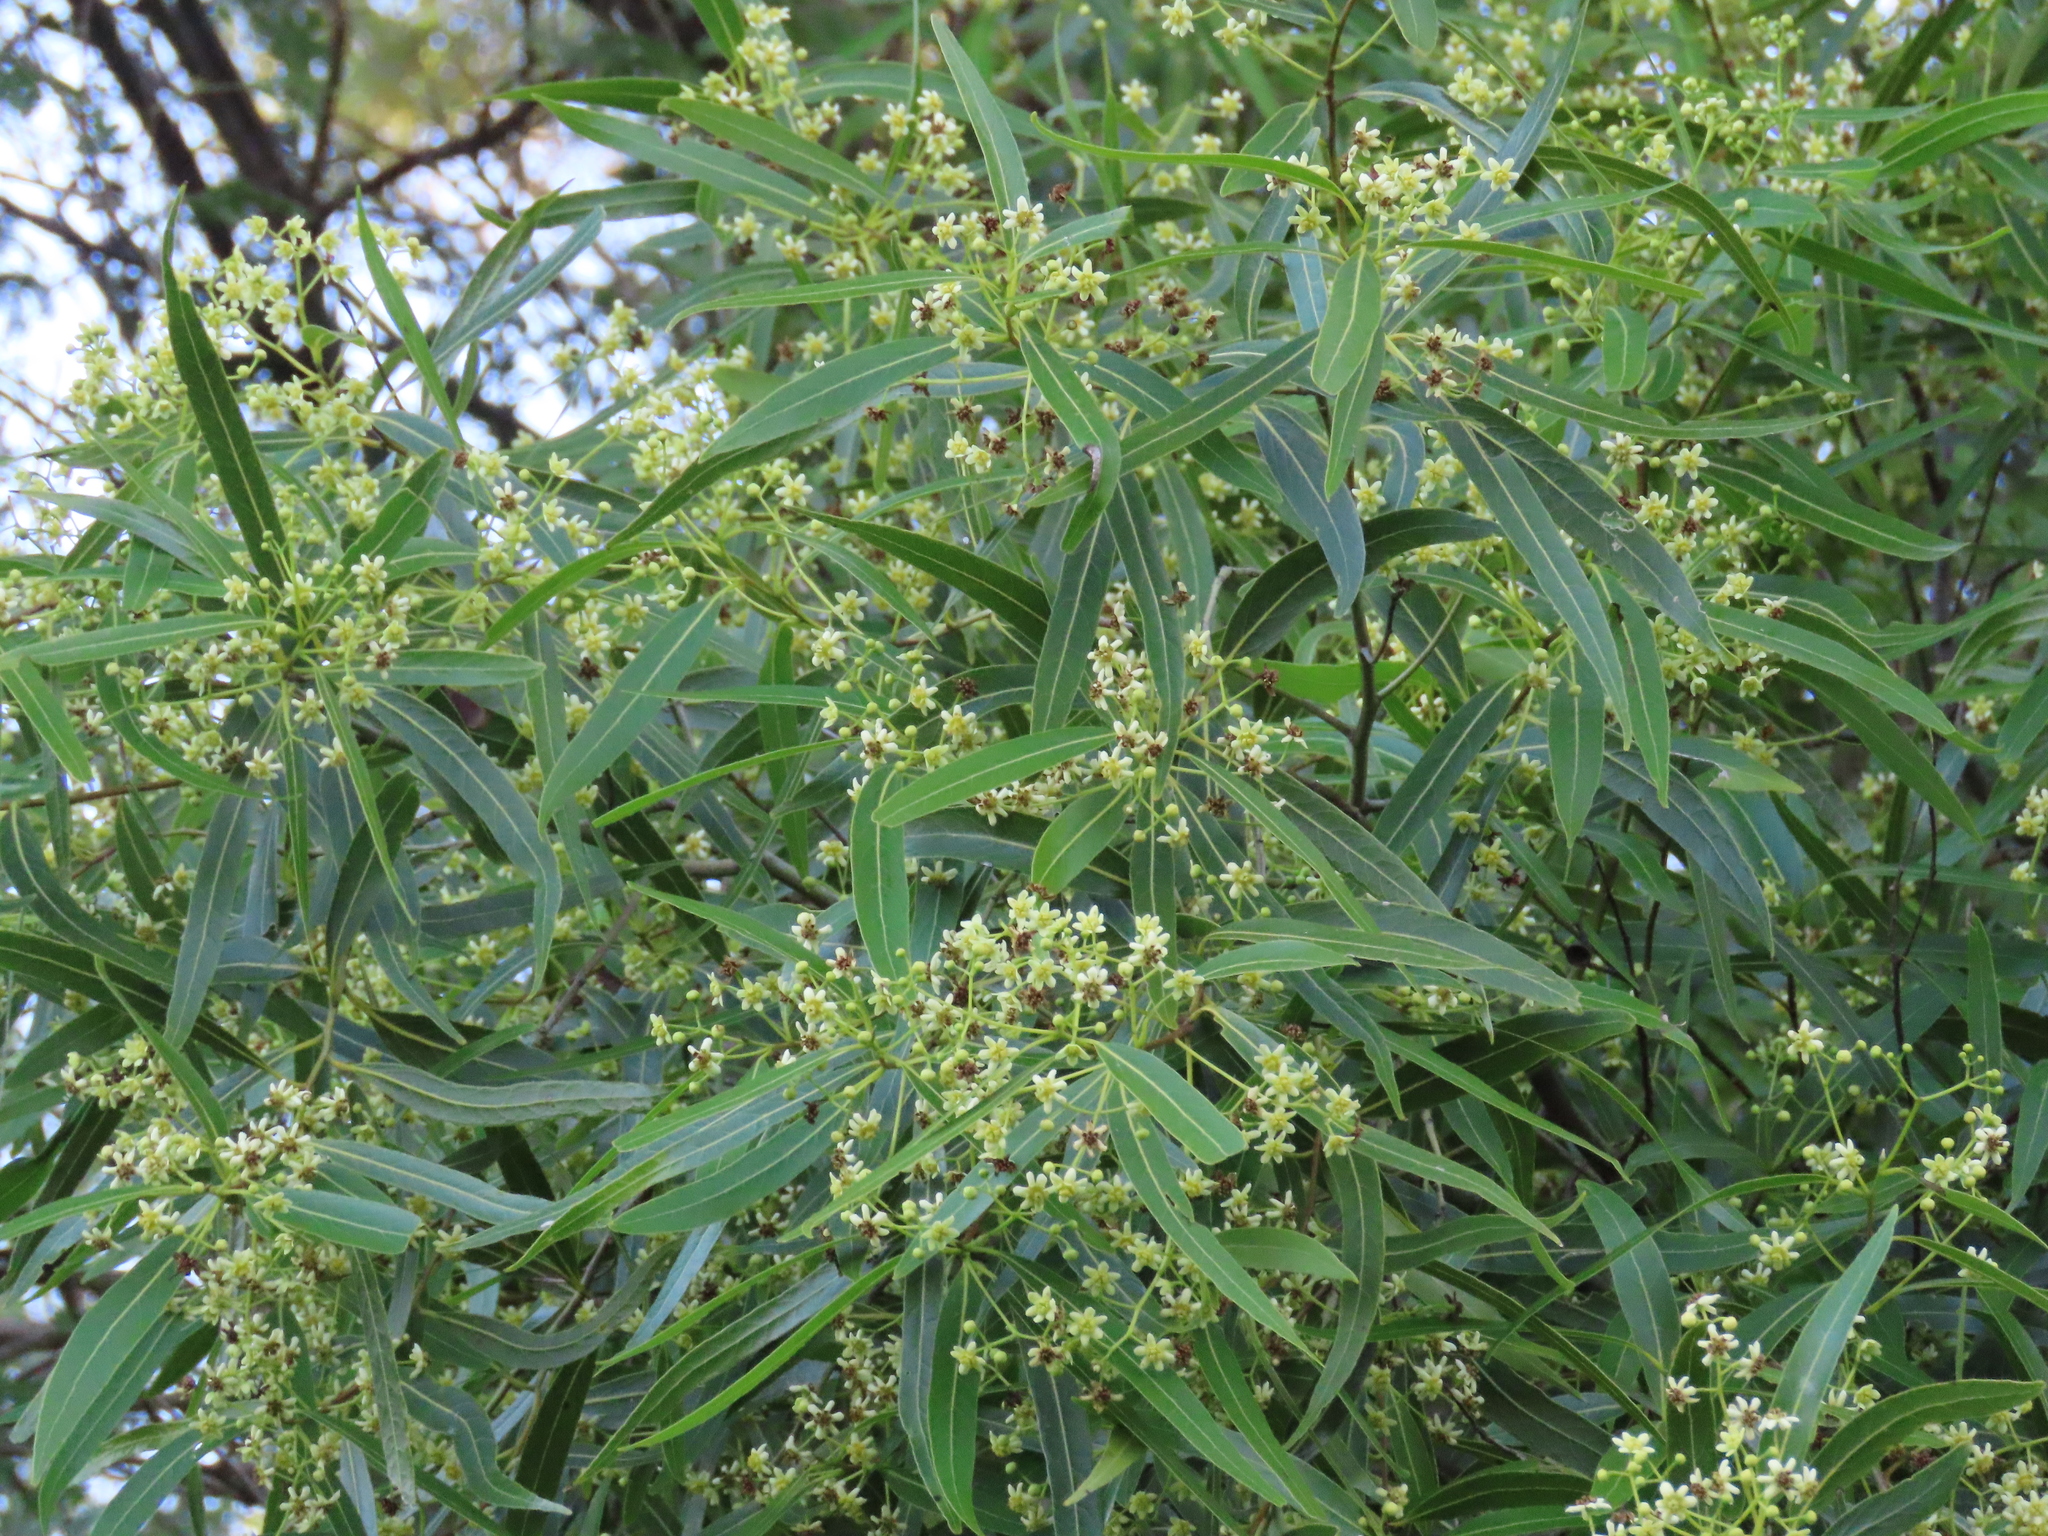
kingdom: Plantae
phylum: Tracheophyta
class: Magnoliopsida
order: Laurales
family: Lauraceae
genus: Nectandra
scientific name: Nectandra angustifolia
